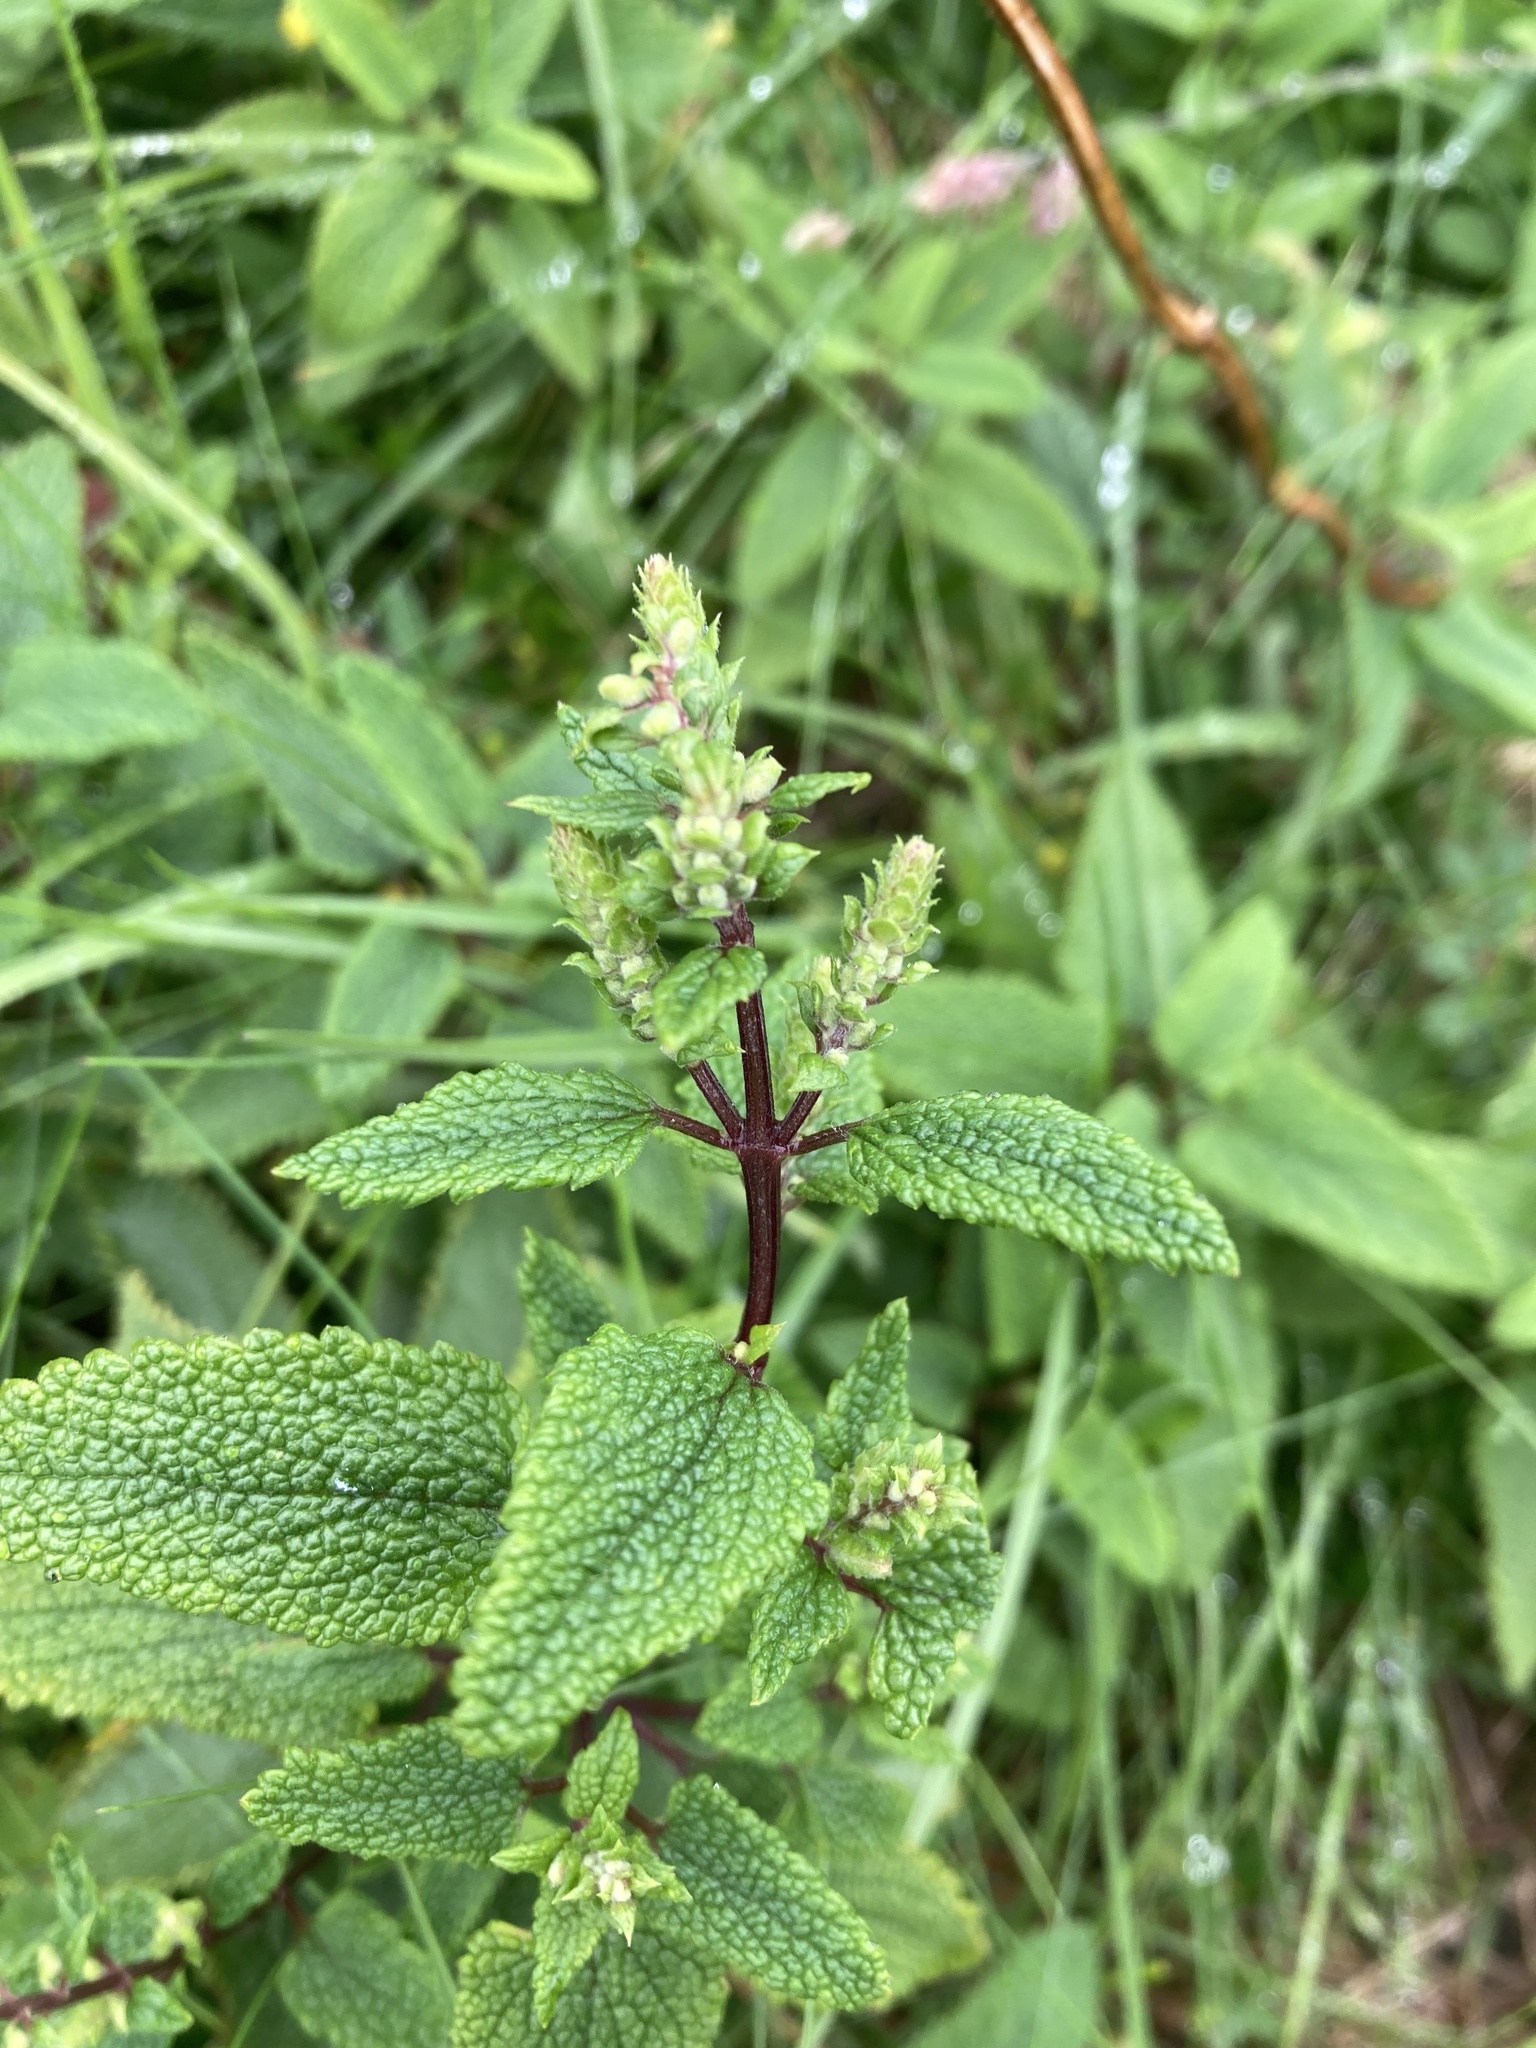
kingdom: Plantae
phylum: Tracheophyta
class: Magnoliopsida
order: Lamiales
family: Lamiaceae
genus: Teucrium
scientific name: Teucrium scorodonia
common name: Woodland germander
